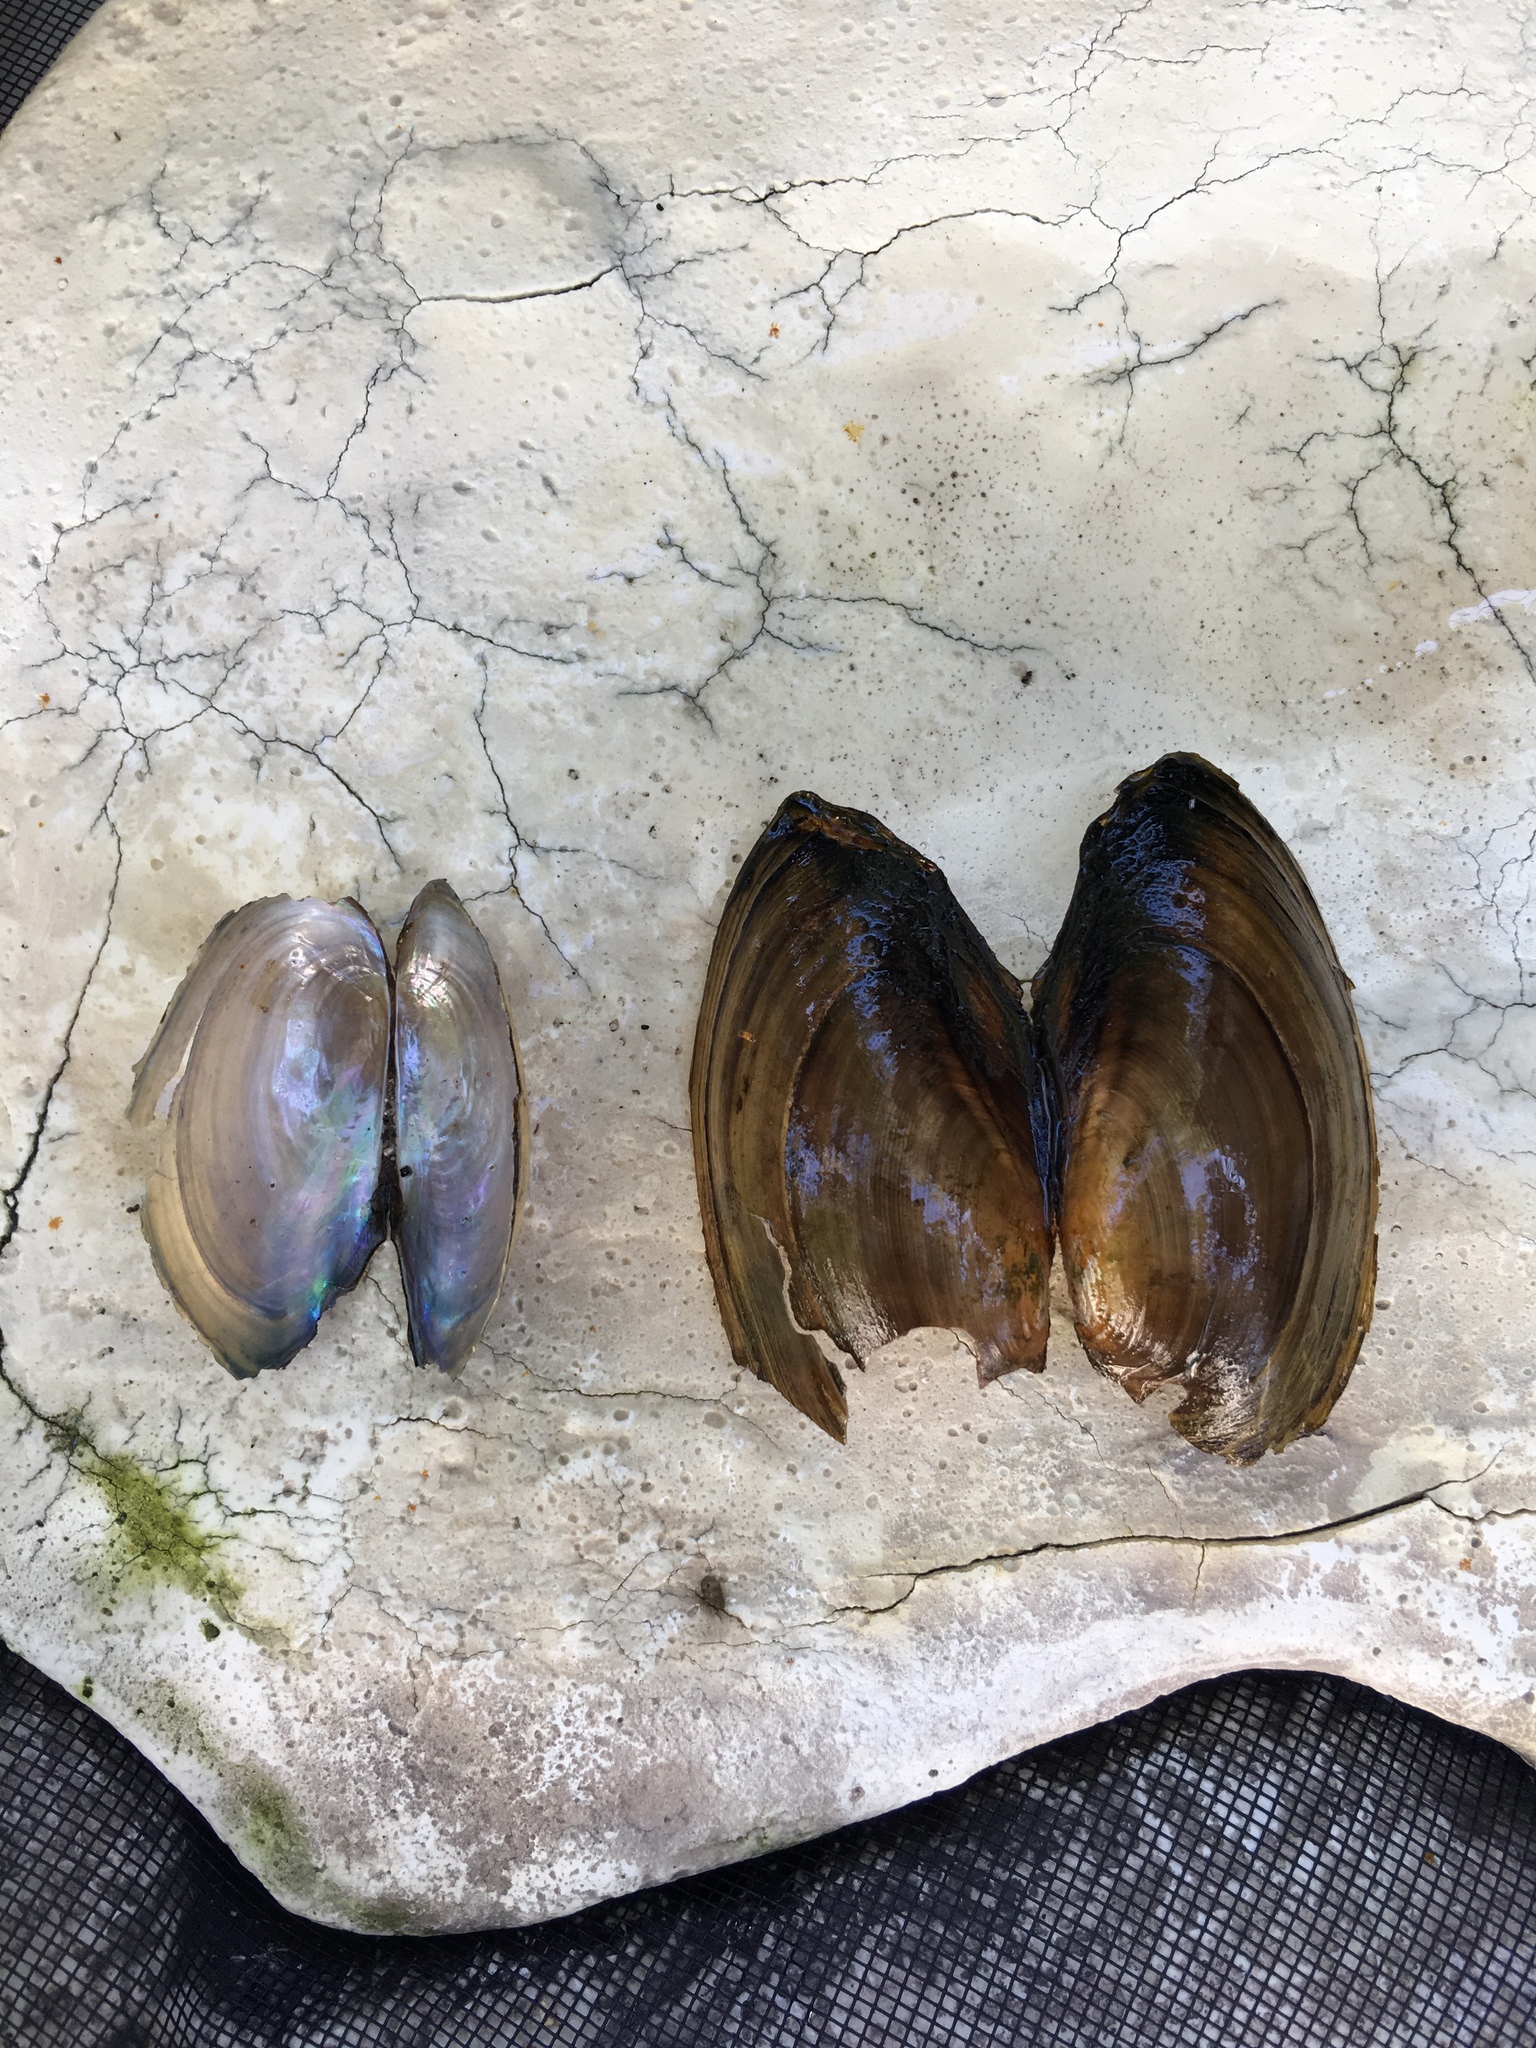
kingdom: Animalia
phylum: Mollusca
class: Bivalvia
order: Unionida
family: Unionidae
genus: Utterbackia
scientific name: Utterbackia imbecillis
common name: Paper pondshell
